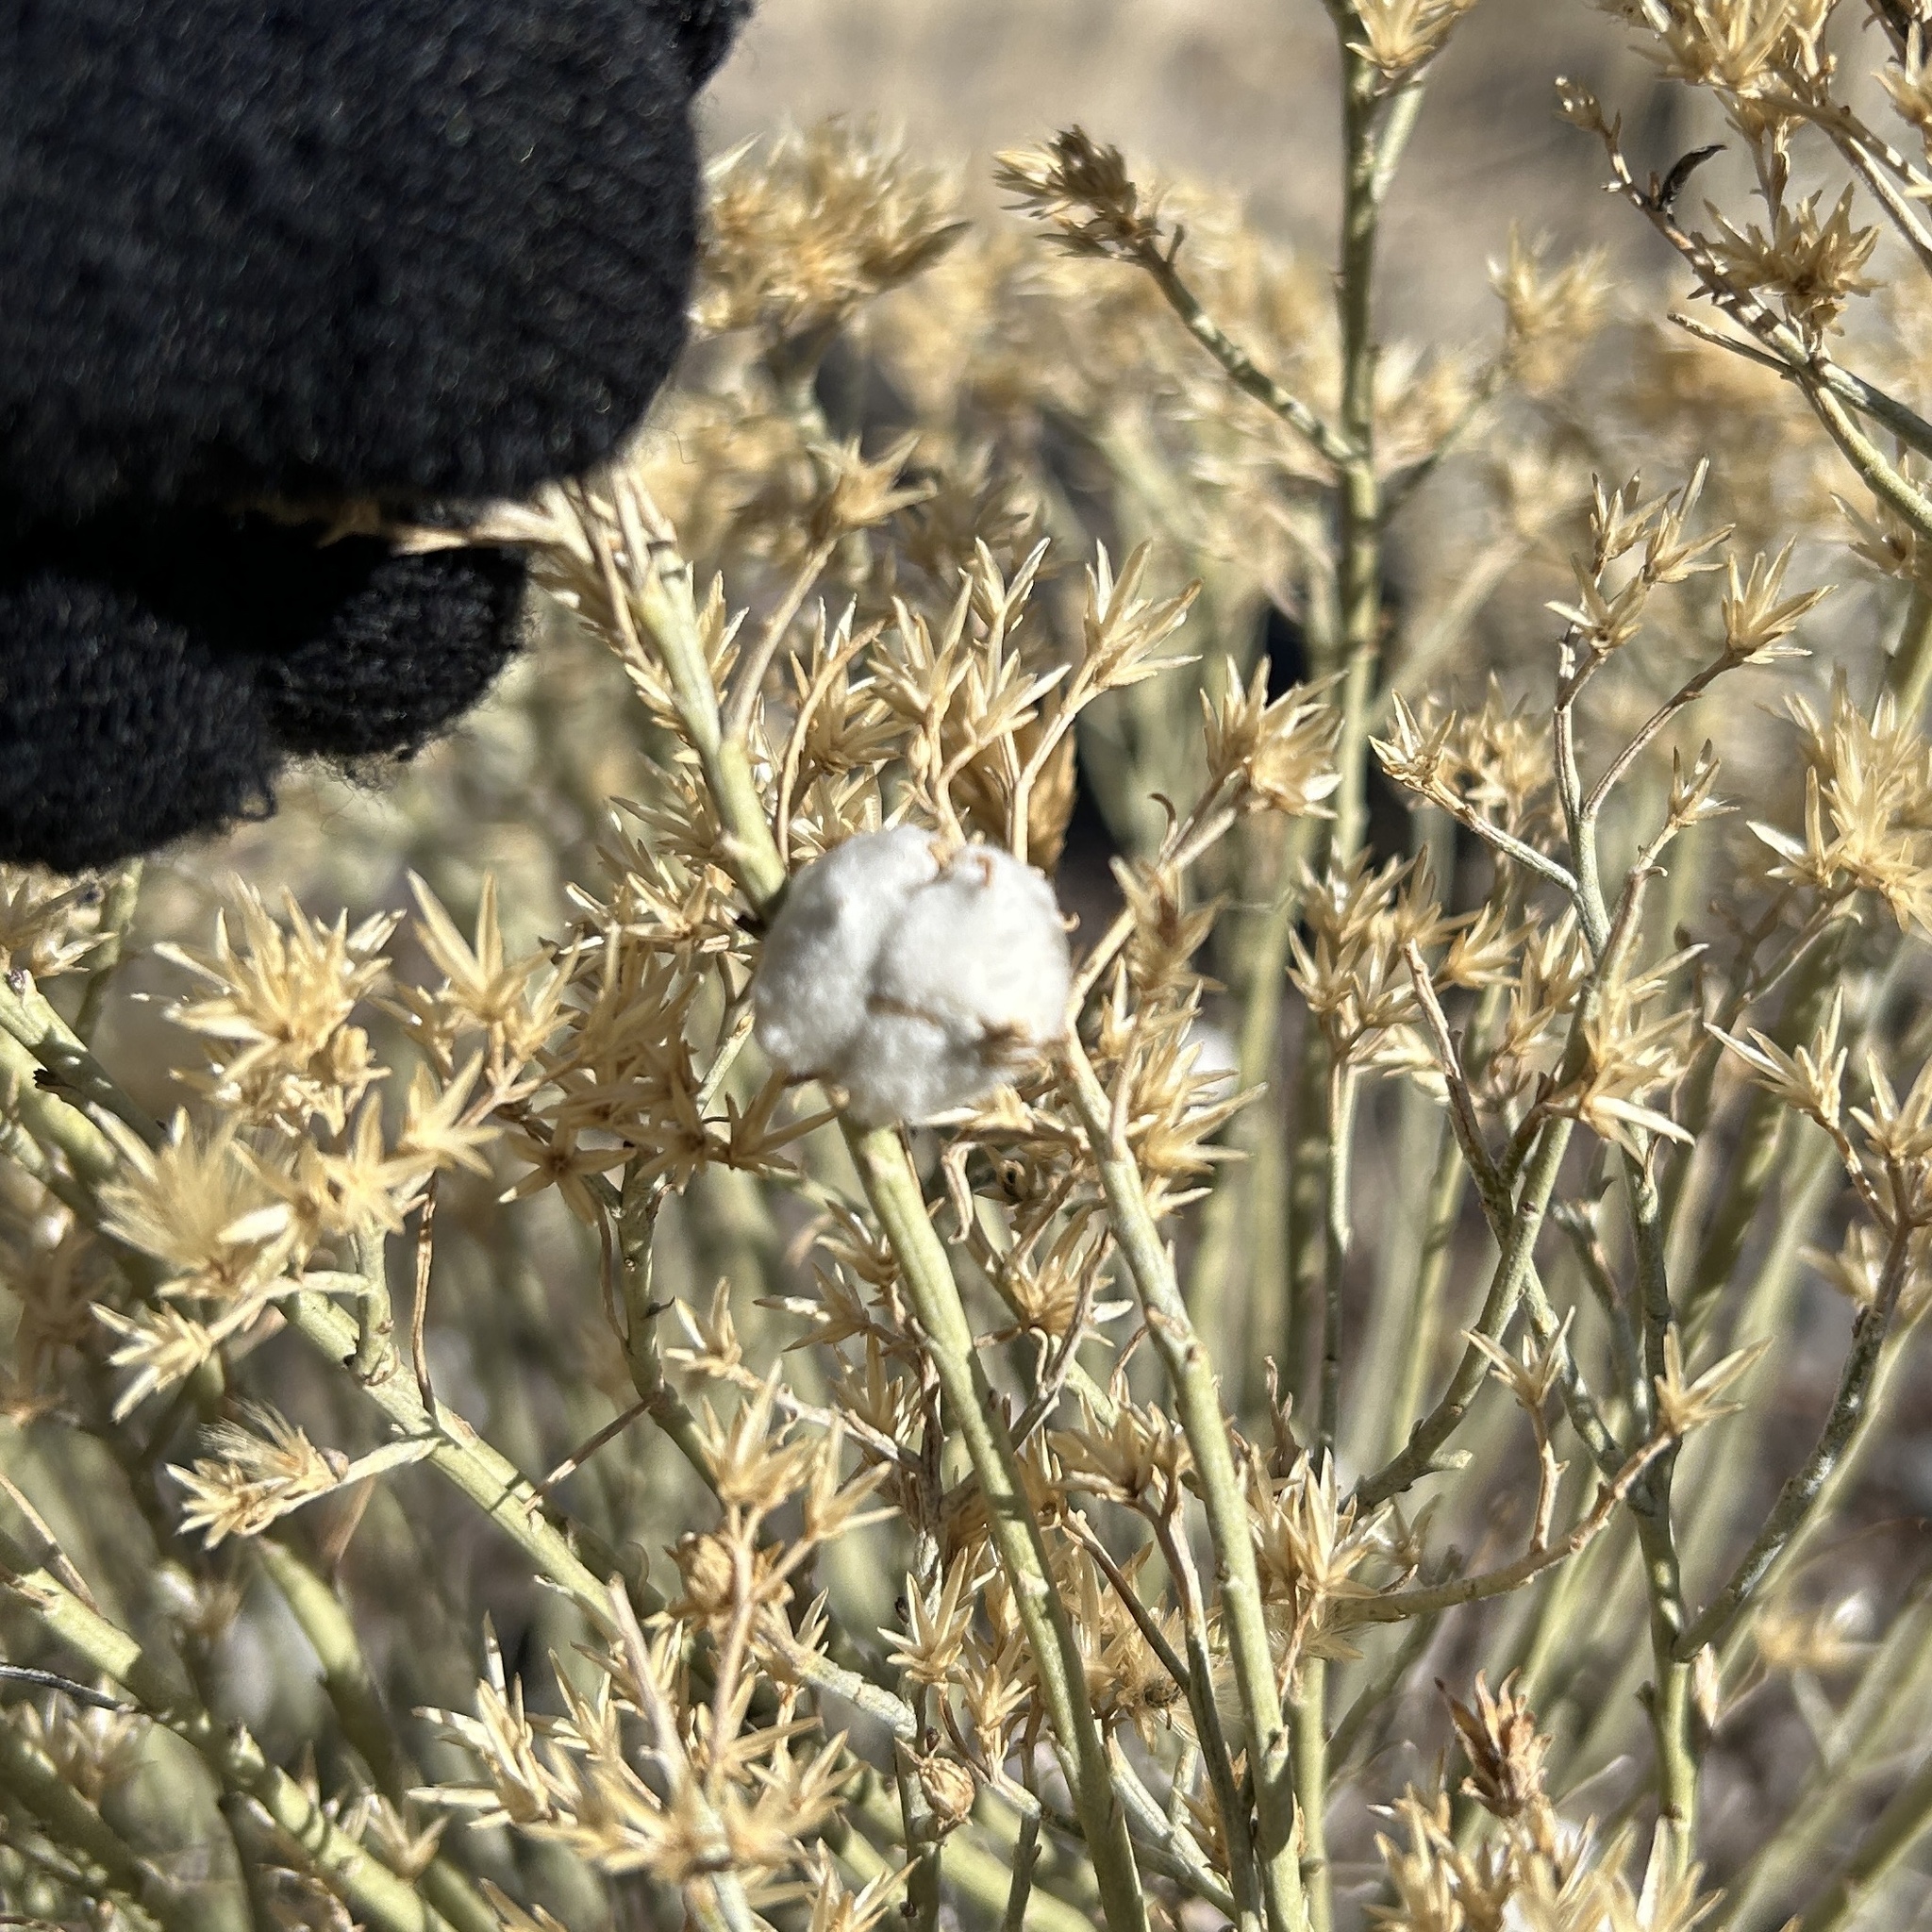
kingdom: Animalia
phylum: Arthropoda
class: Insecta
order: Diptera
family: Tephritidae
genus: Aciurina
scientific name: Aciurina bigeloviae
